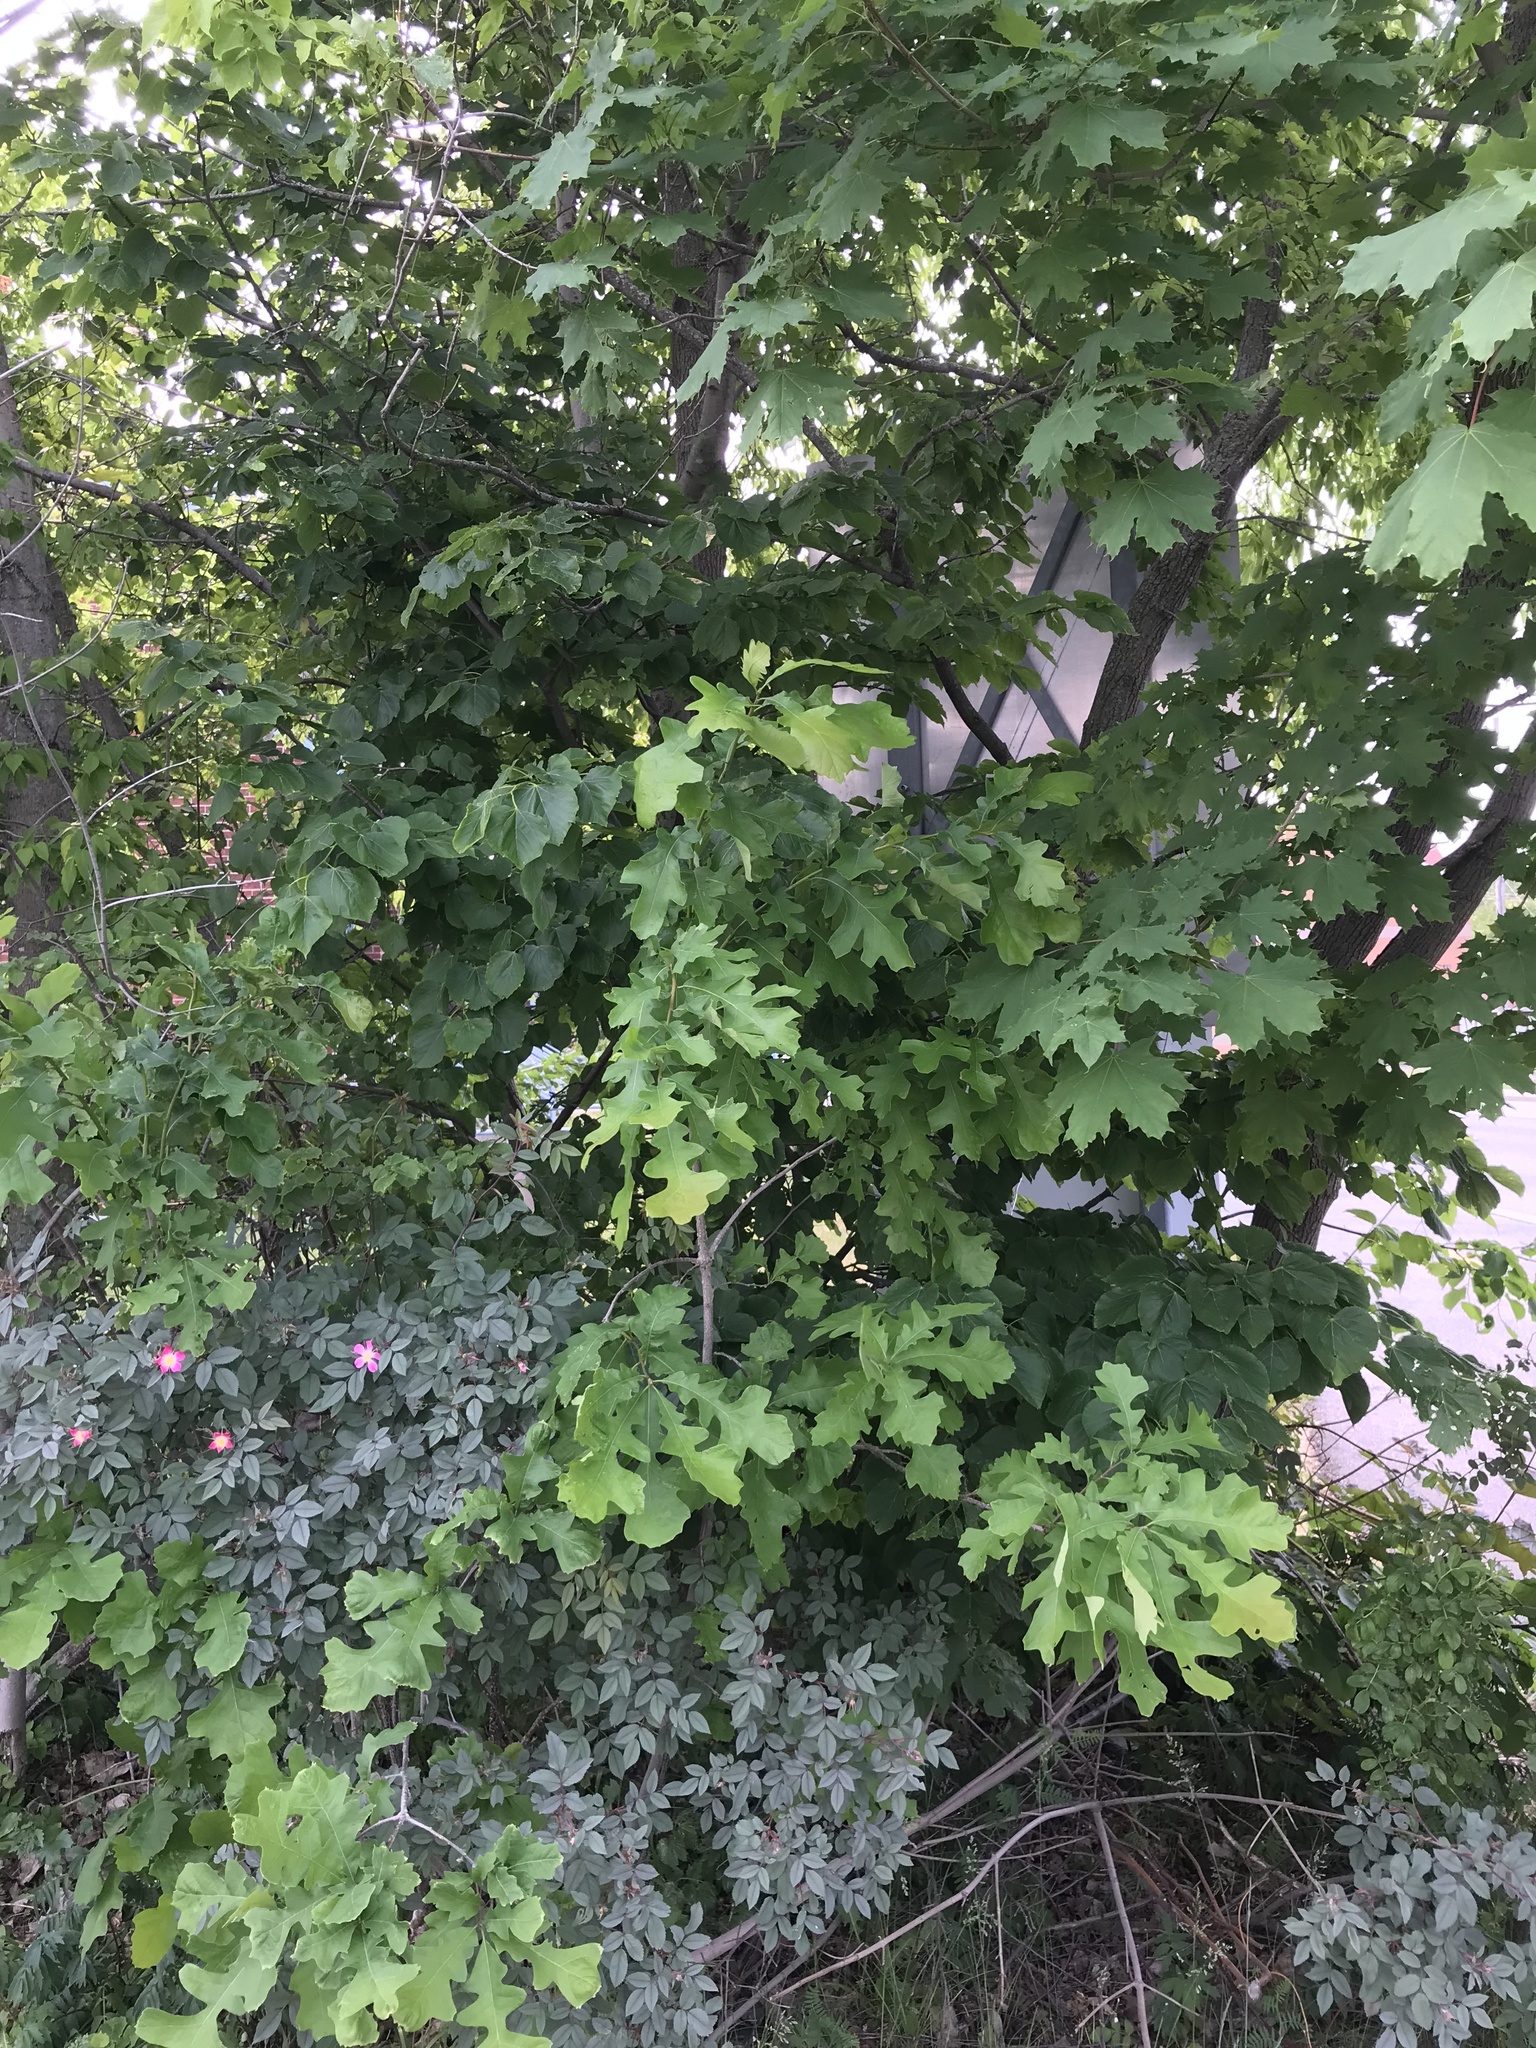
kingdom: Plantae
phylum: Tracheophyta
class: Magnoliopsida
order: Fagales
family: Fagaceae
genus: Quercus
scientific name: Quercus macrocarpa
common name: Bur oak
